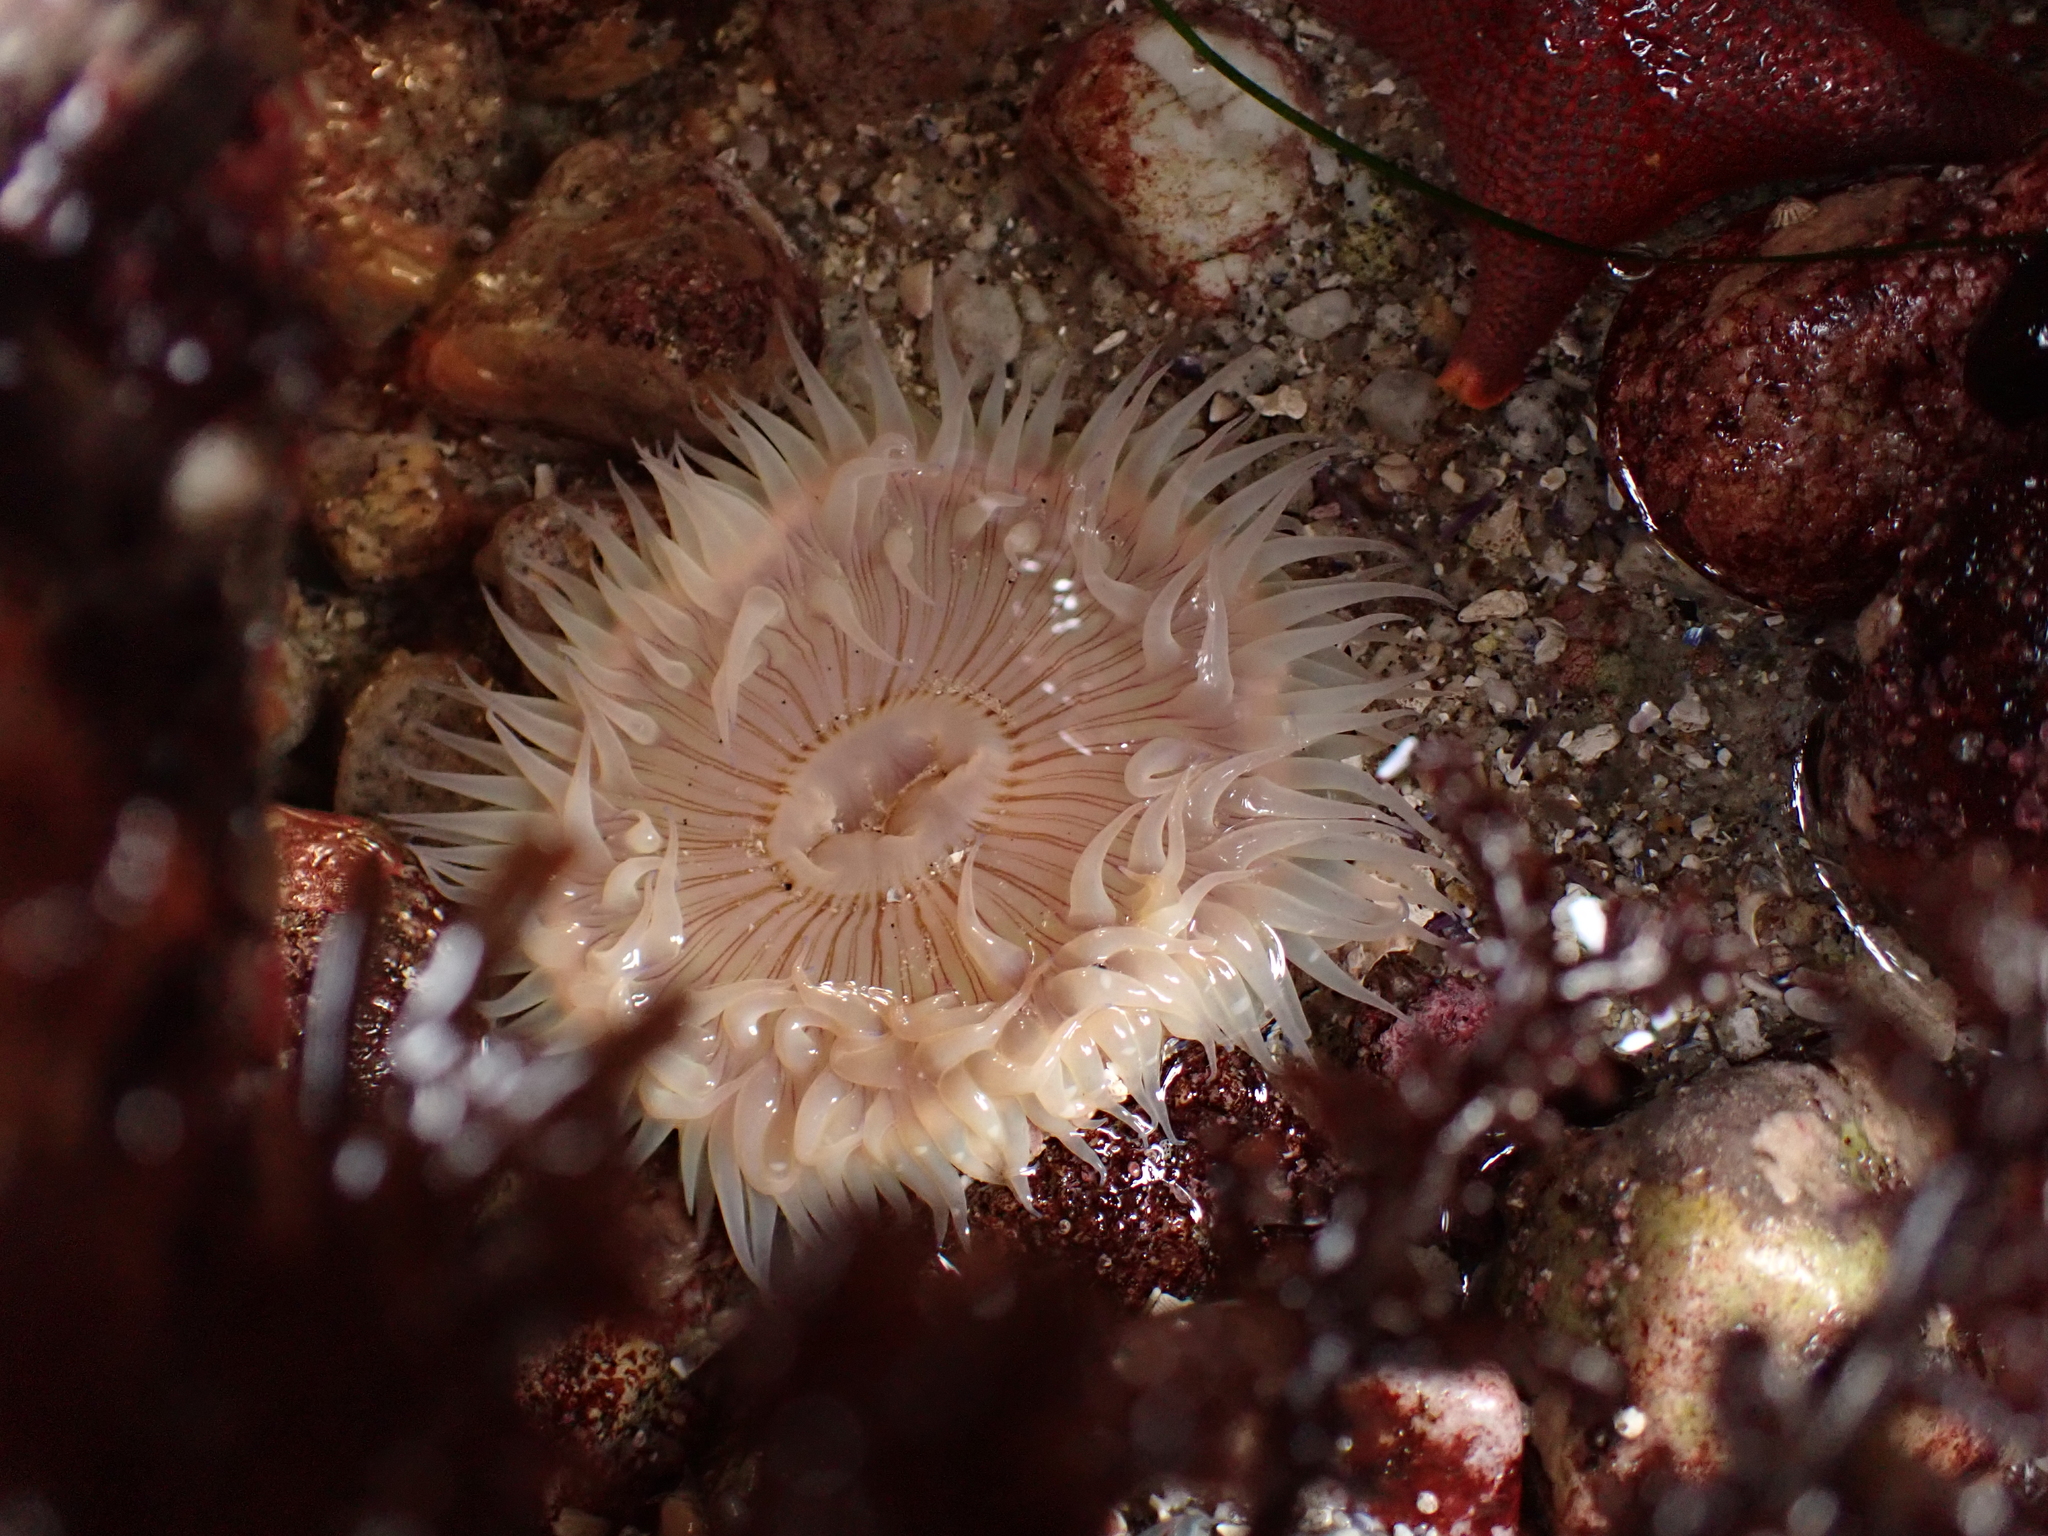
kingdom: Animalia
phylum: Cnidaria
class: Anthozoa
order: Actiniaria
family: Actiniidae
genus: Anthopleura
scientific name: Anthopleura sola
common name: Sun anemone
